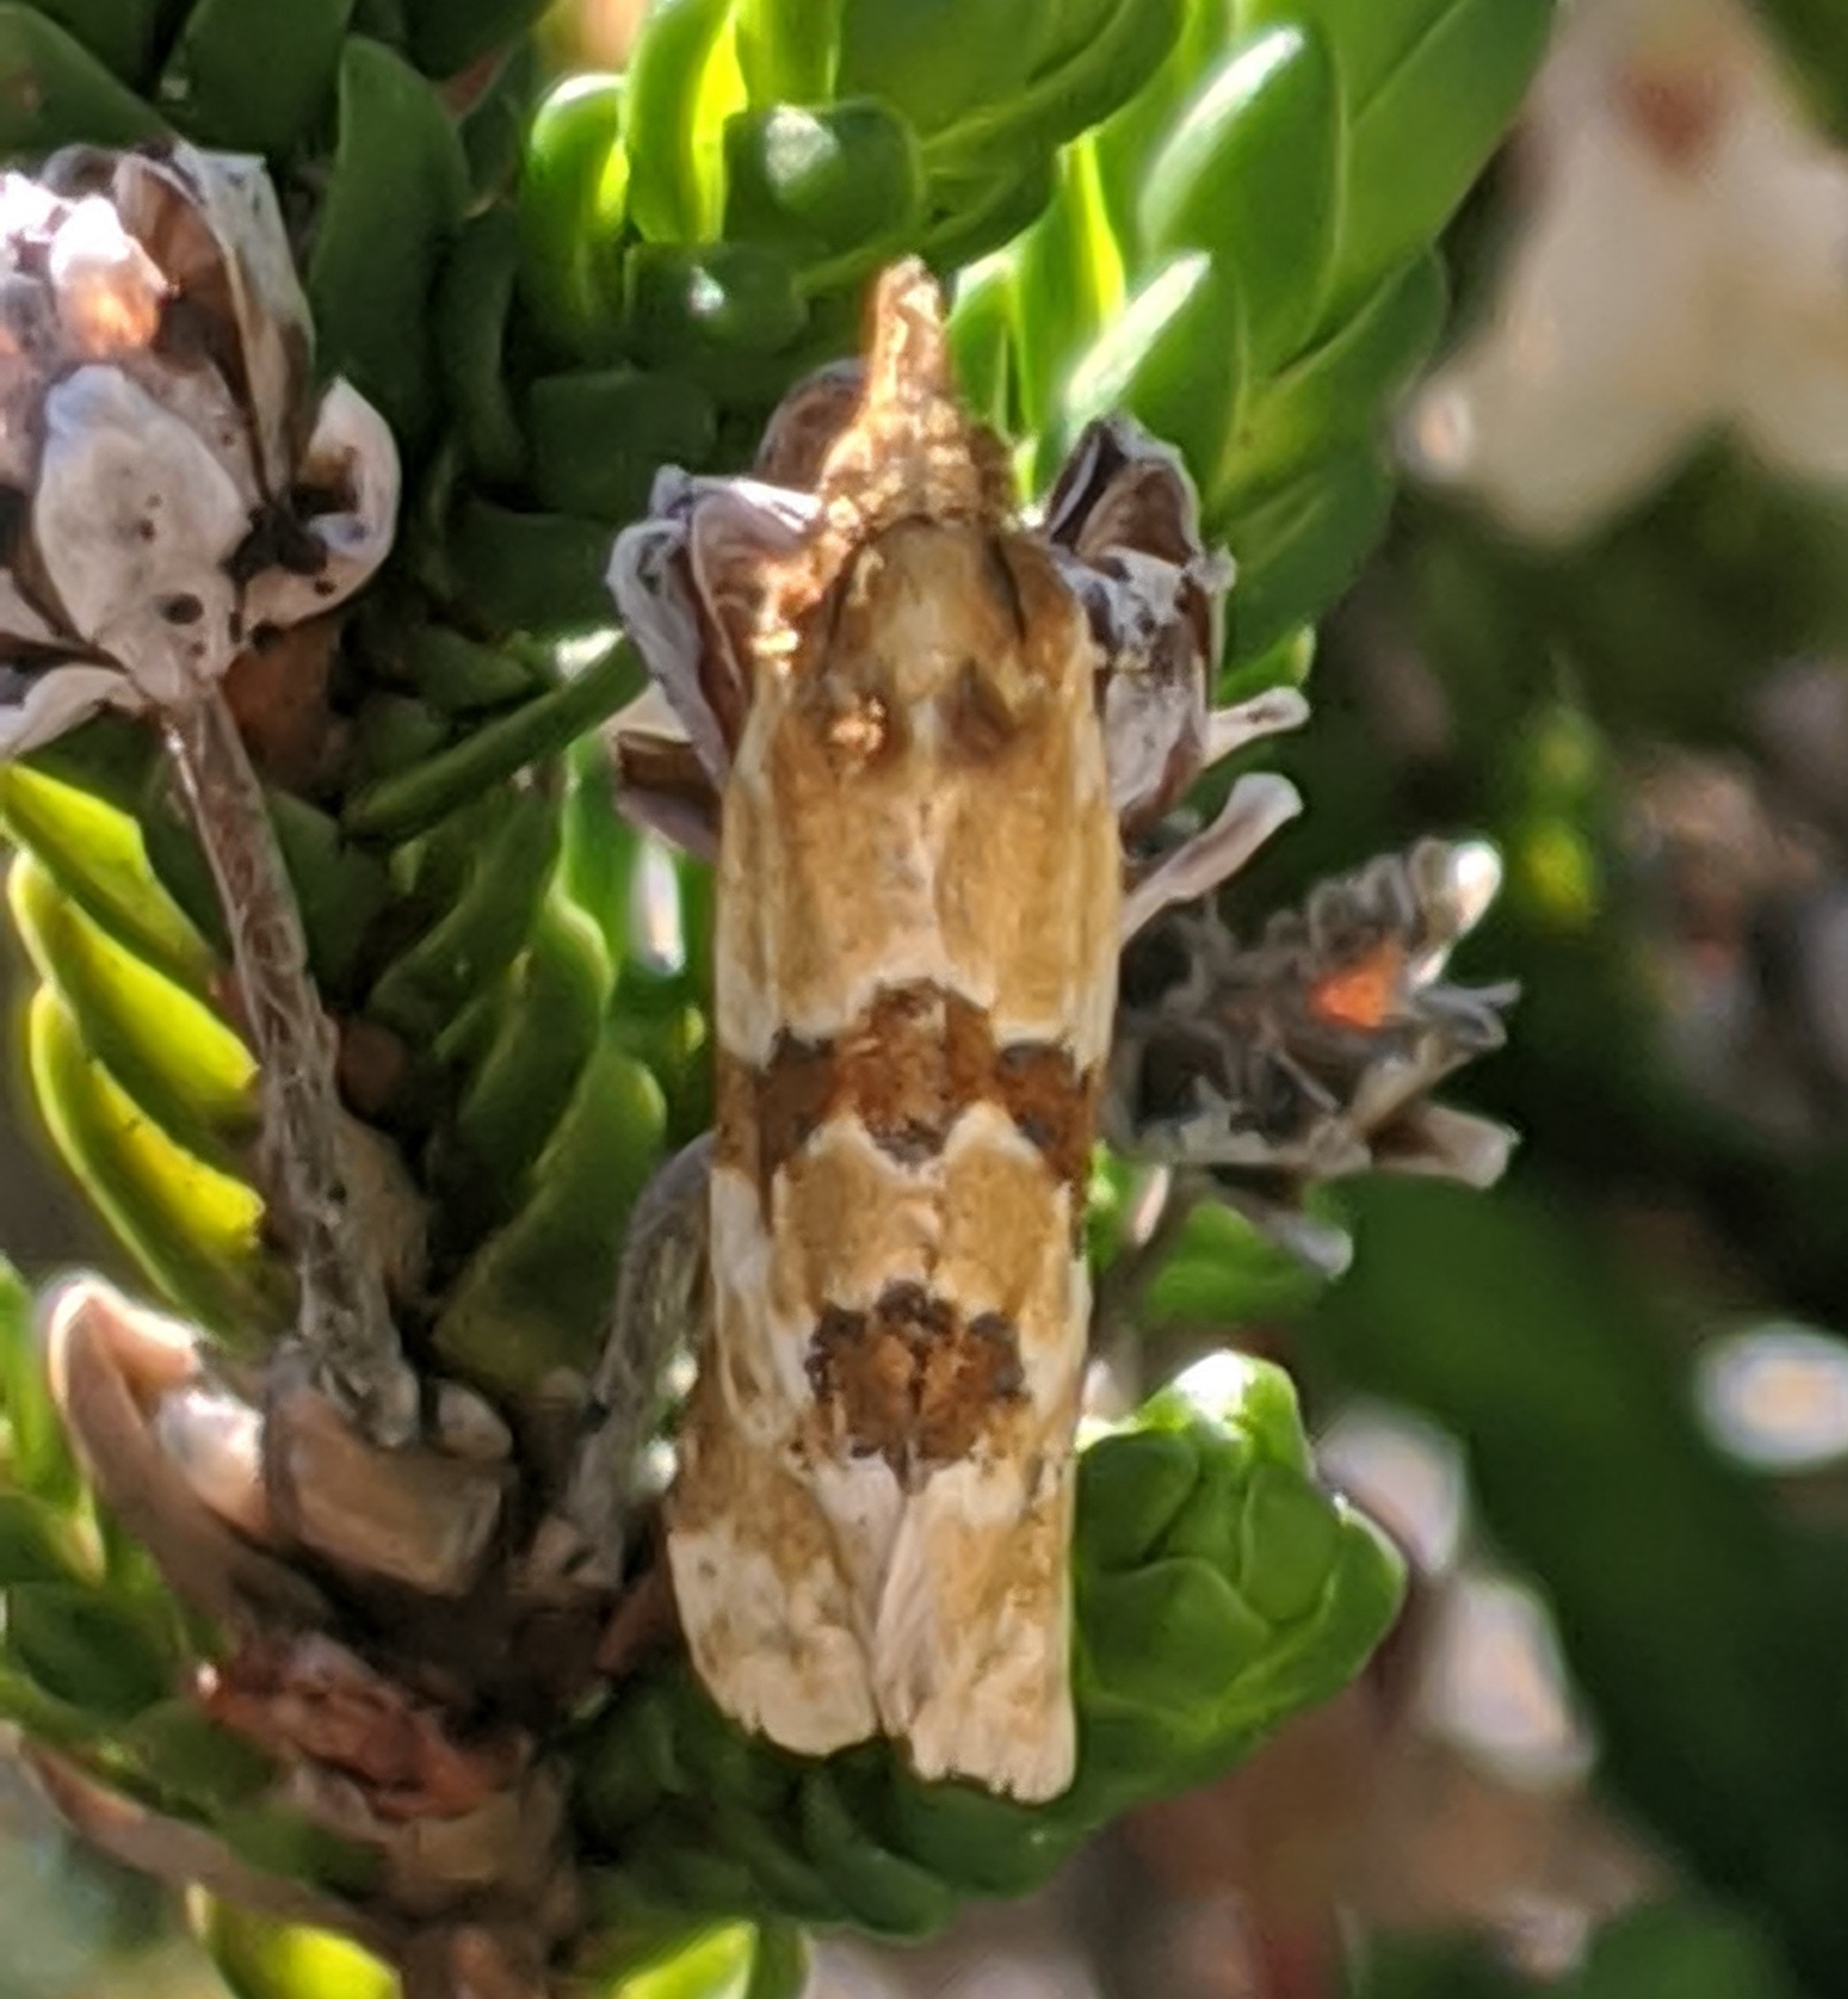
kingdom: Animalia
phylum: Arthropoda
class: Insecta
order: Lepidoptera
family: Tortricidae
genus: Aethes
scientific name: Aethes deutschiana
